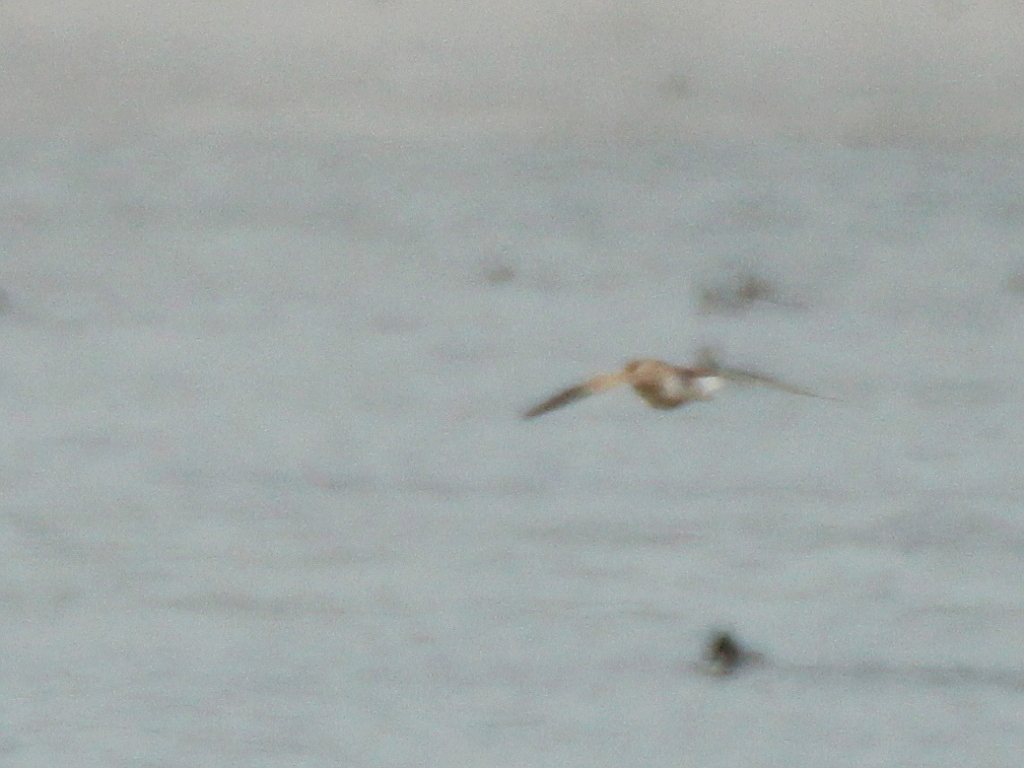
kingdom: Animalia
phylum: Chordata
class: Aves
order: Falconiformes
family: Falconidae
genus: Falco
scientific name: Falco tinnunculus
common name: Common kestrel
